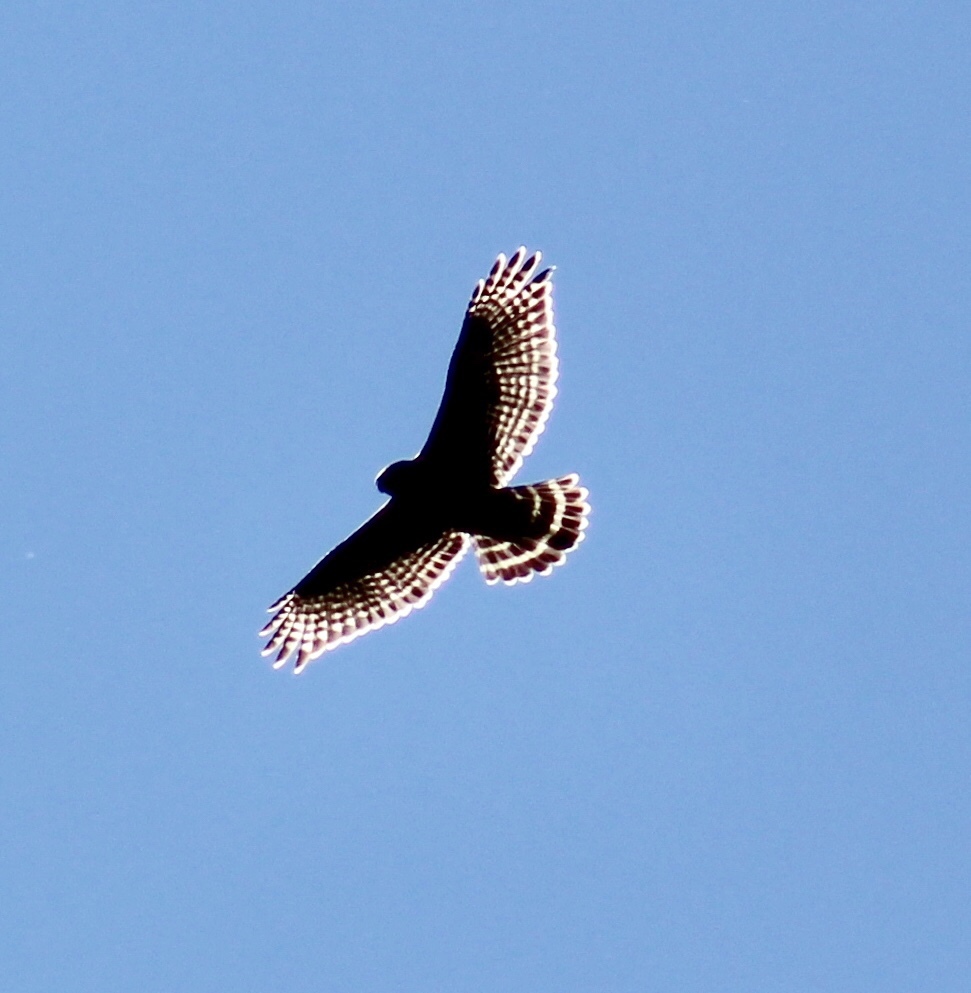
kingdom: Animalia
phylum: Chordata
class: Aves
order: Accipitriformes
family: Accipitridae
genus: Buteo
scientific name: Buteo lineatus
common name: Red-shouldered hawk
